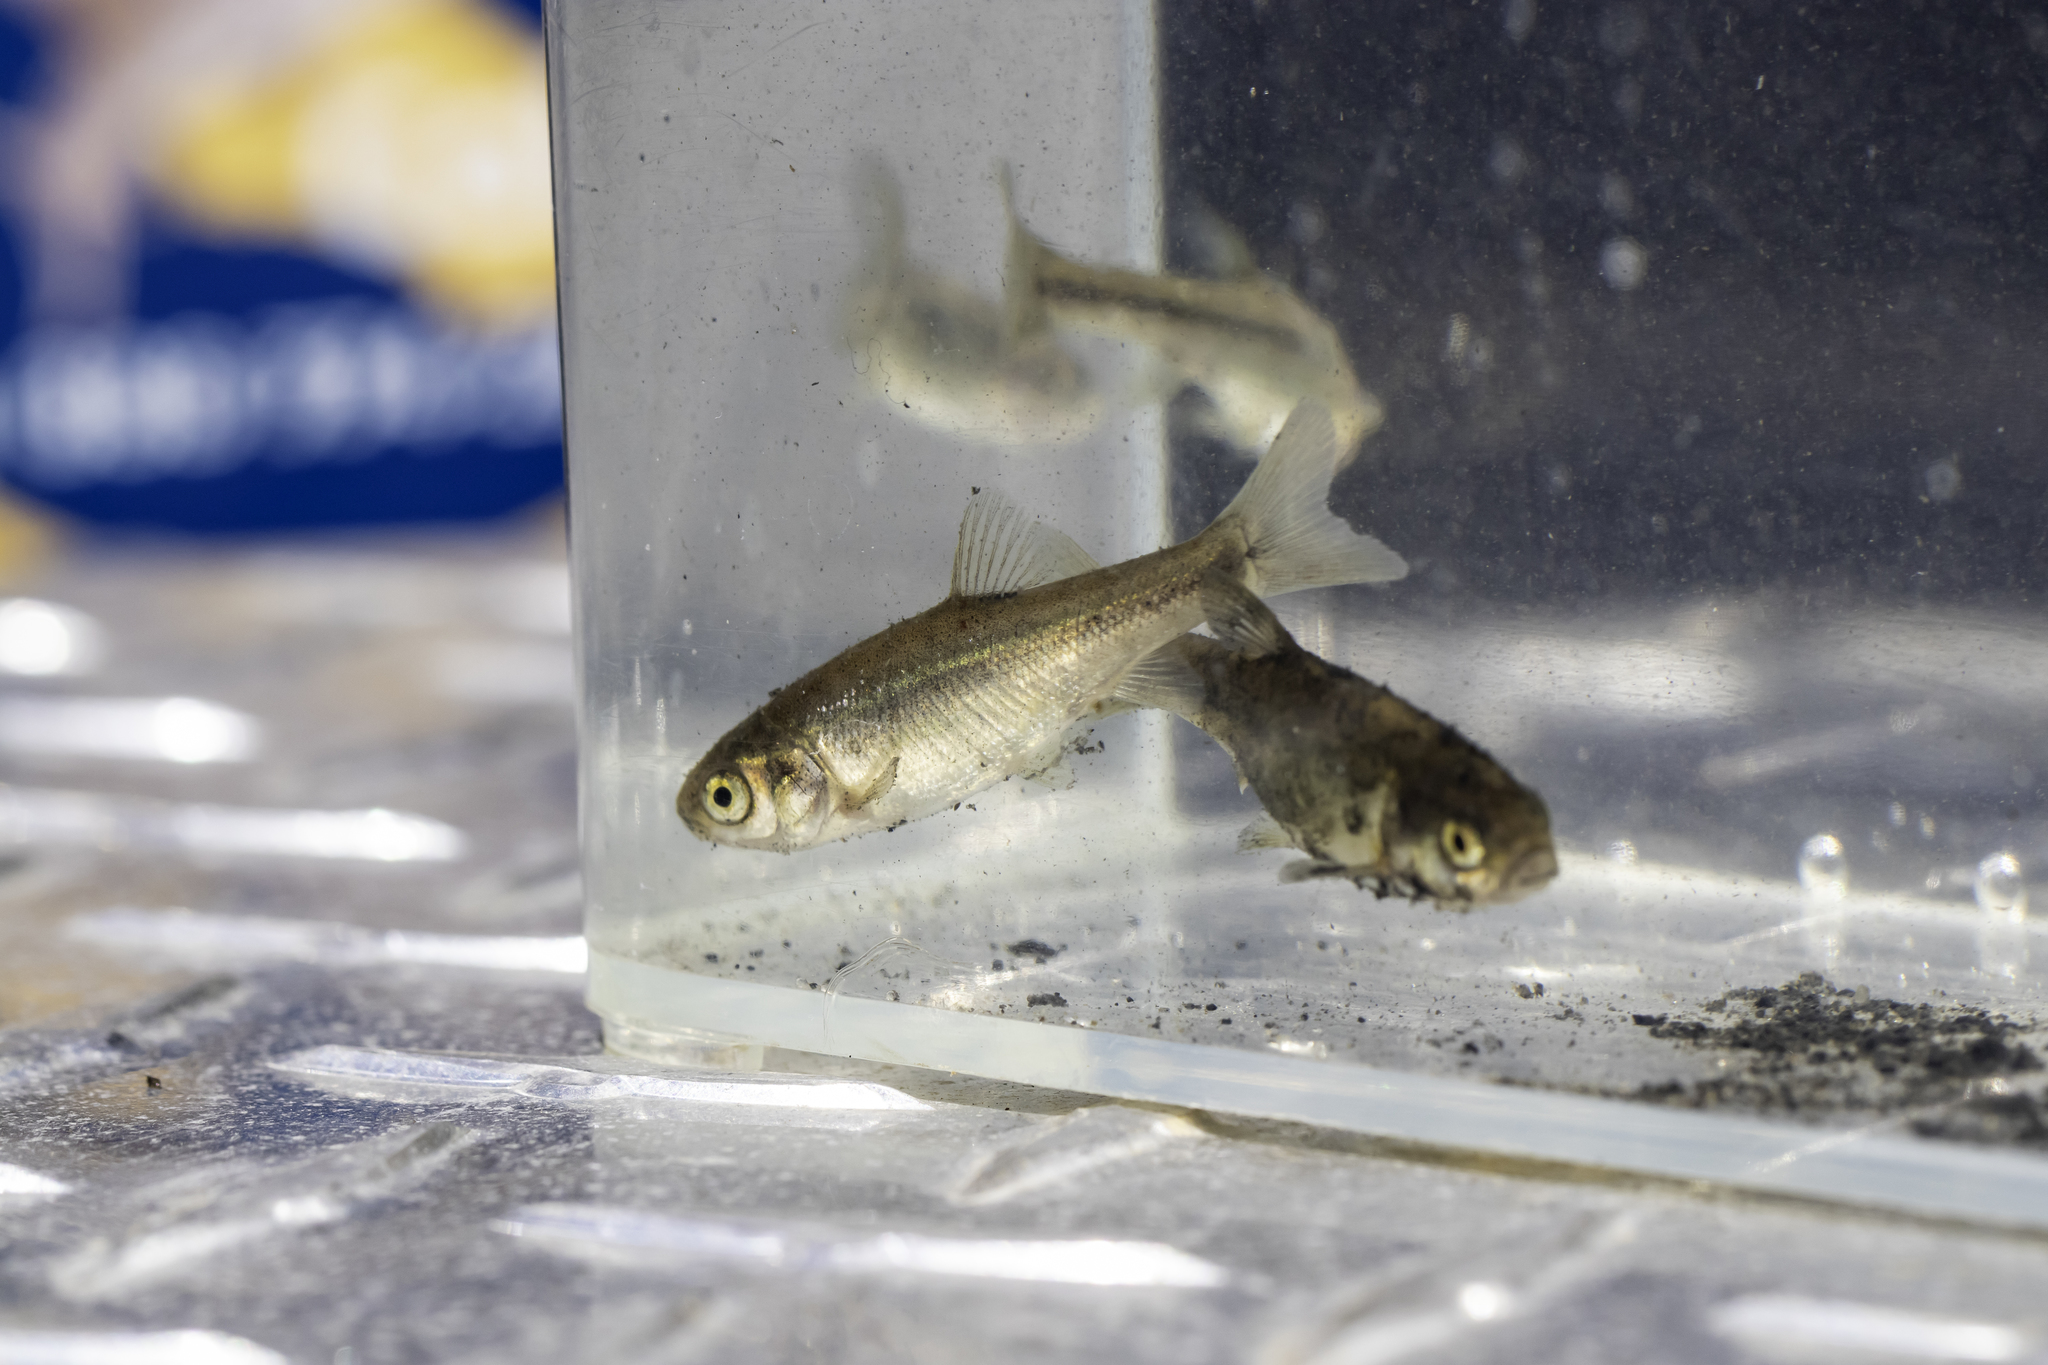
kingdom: Animalia
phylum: Chordata
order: Cypriniformes
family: Cyprinidae
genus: Gila
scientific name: Gila orcuttii
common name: Arroyo chub
